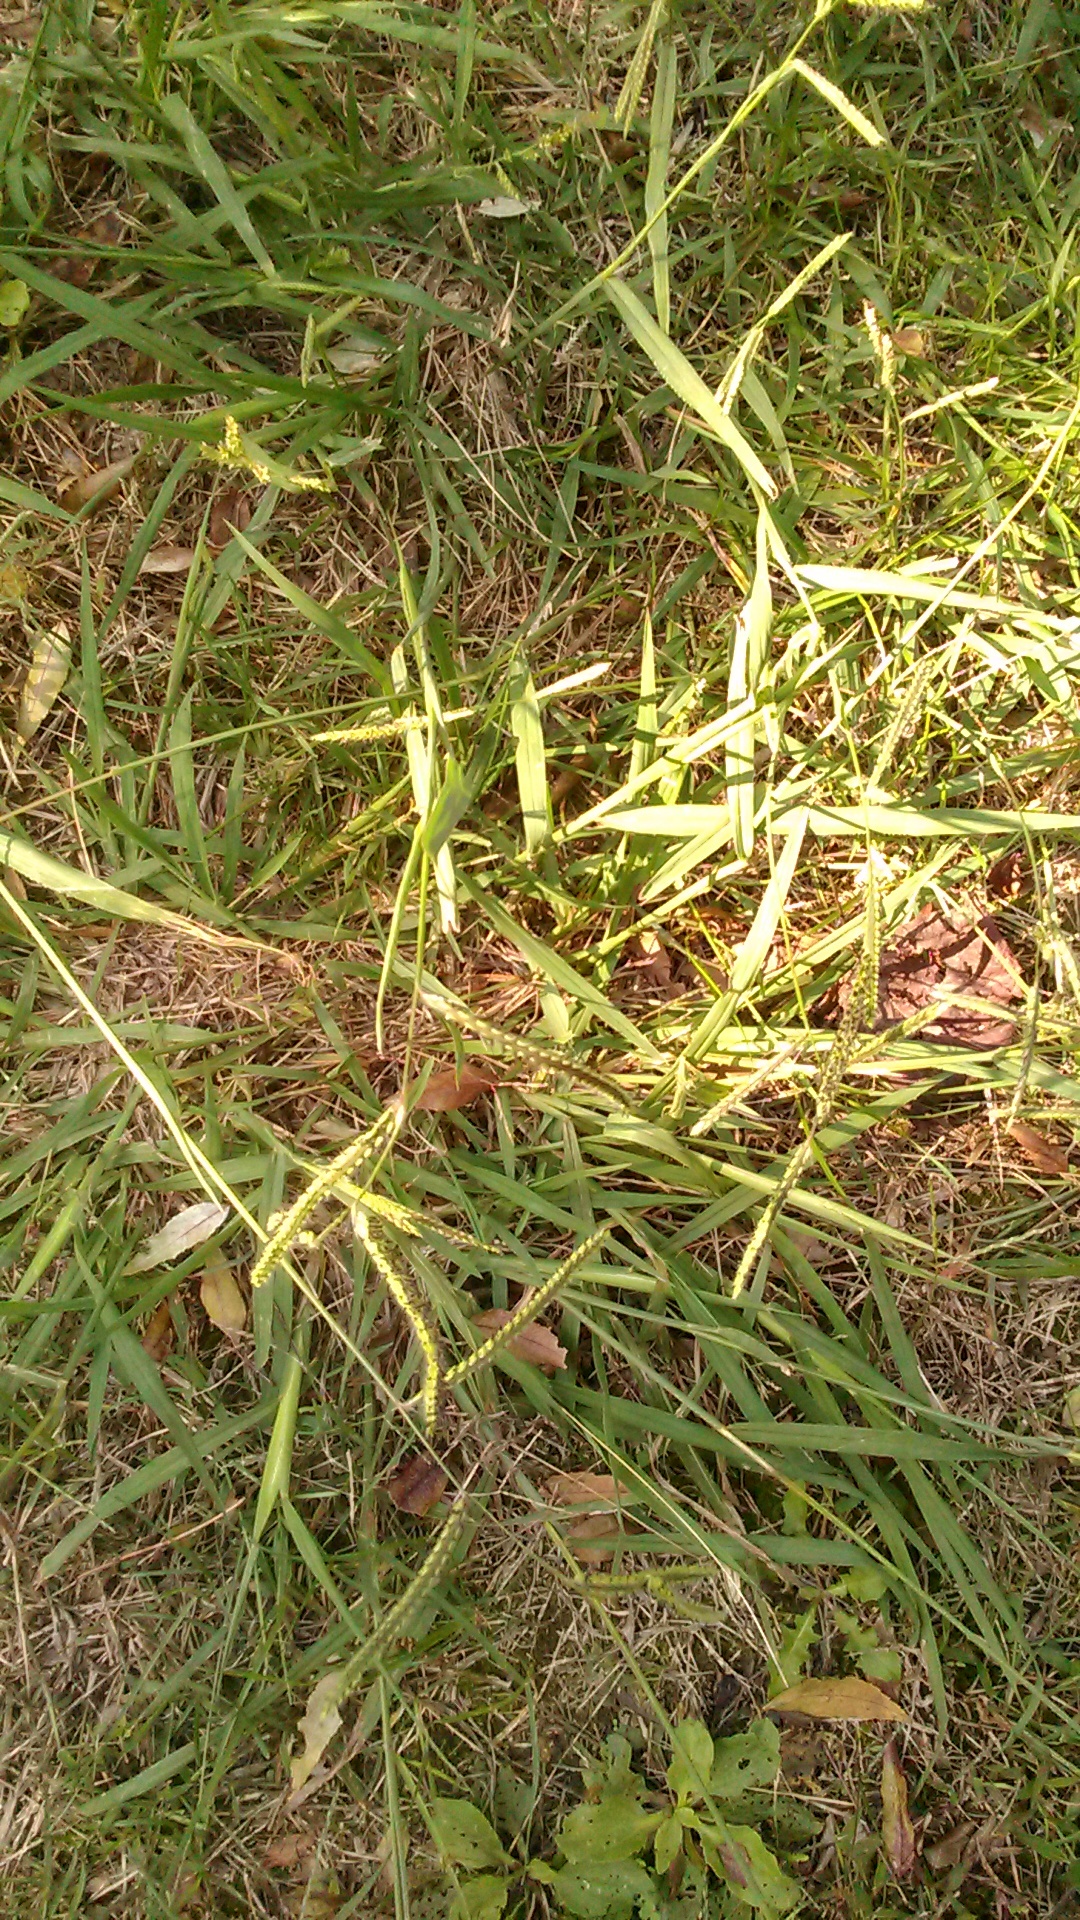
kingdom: Plantae
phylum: Tracheophyta
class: Liliopsida
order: Poales
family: Poaceae
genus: Paspalum
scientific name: Paspalum dilatatum
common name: Dallisgrass
